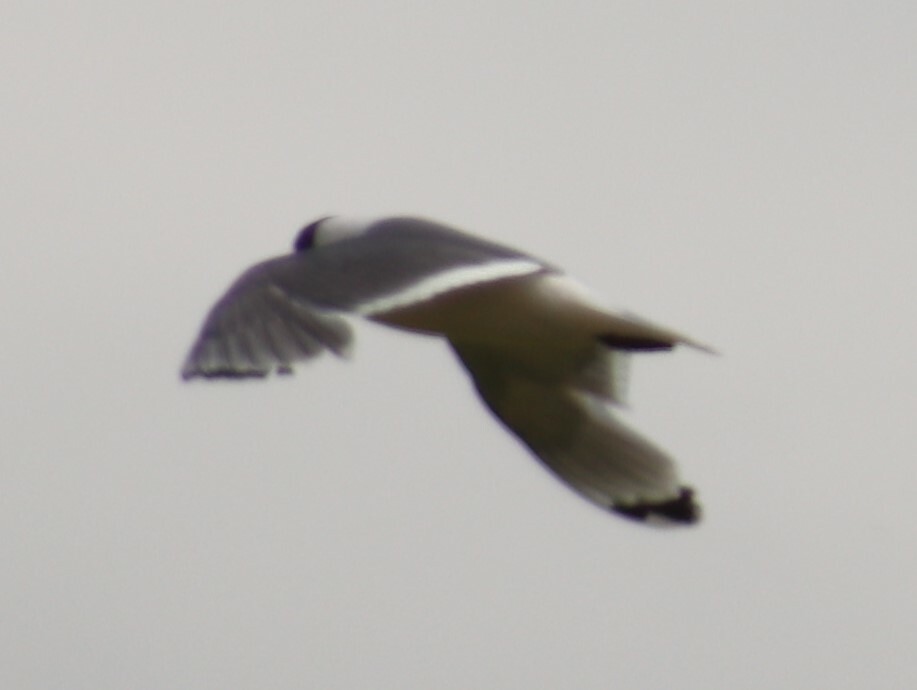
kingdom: Animalia
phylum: Chordata
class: Aves
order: Charadriiformes
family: Laridae
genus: Leucophaeus
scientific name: Leucophaeus pipixcan
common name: Franklin's gull
